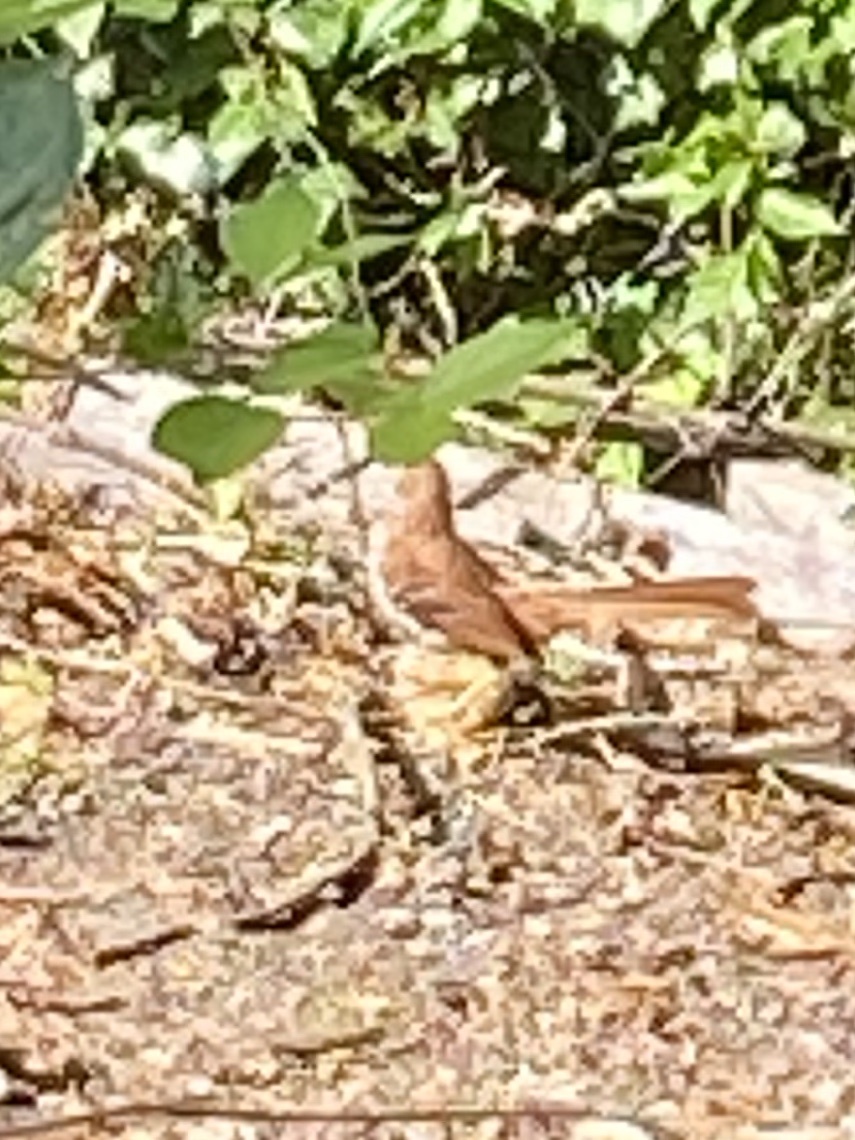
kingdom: Animalia
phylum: Chordata
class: Aves
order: Passeriformes
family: Mimidae
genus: Toxostoma
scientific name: Toxostoma rufum
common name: Brown thrasher
